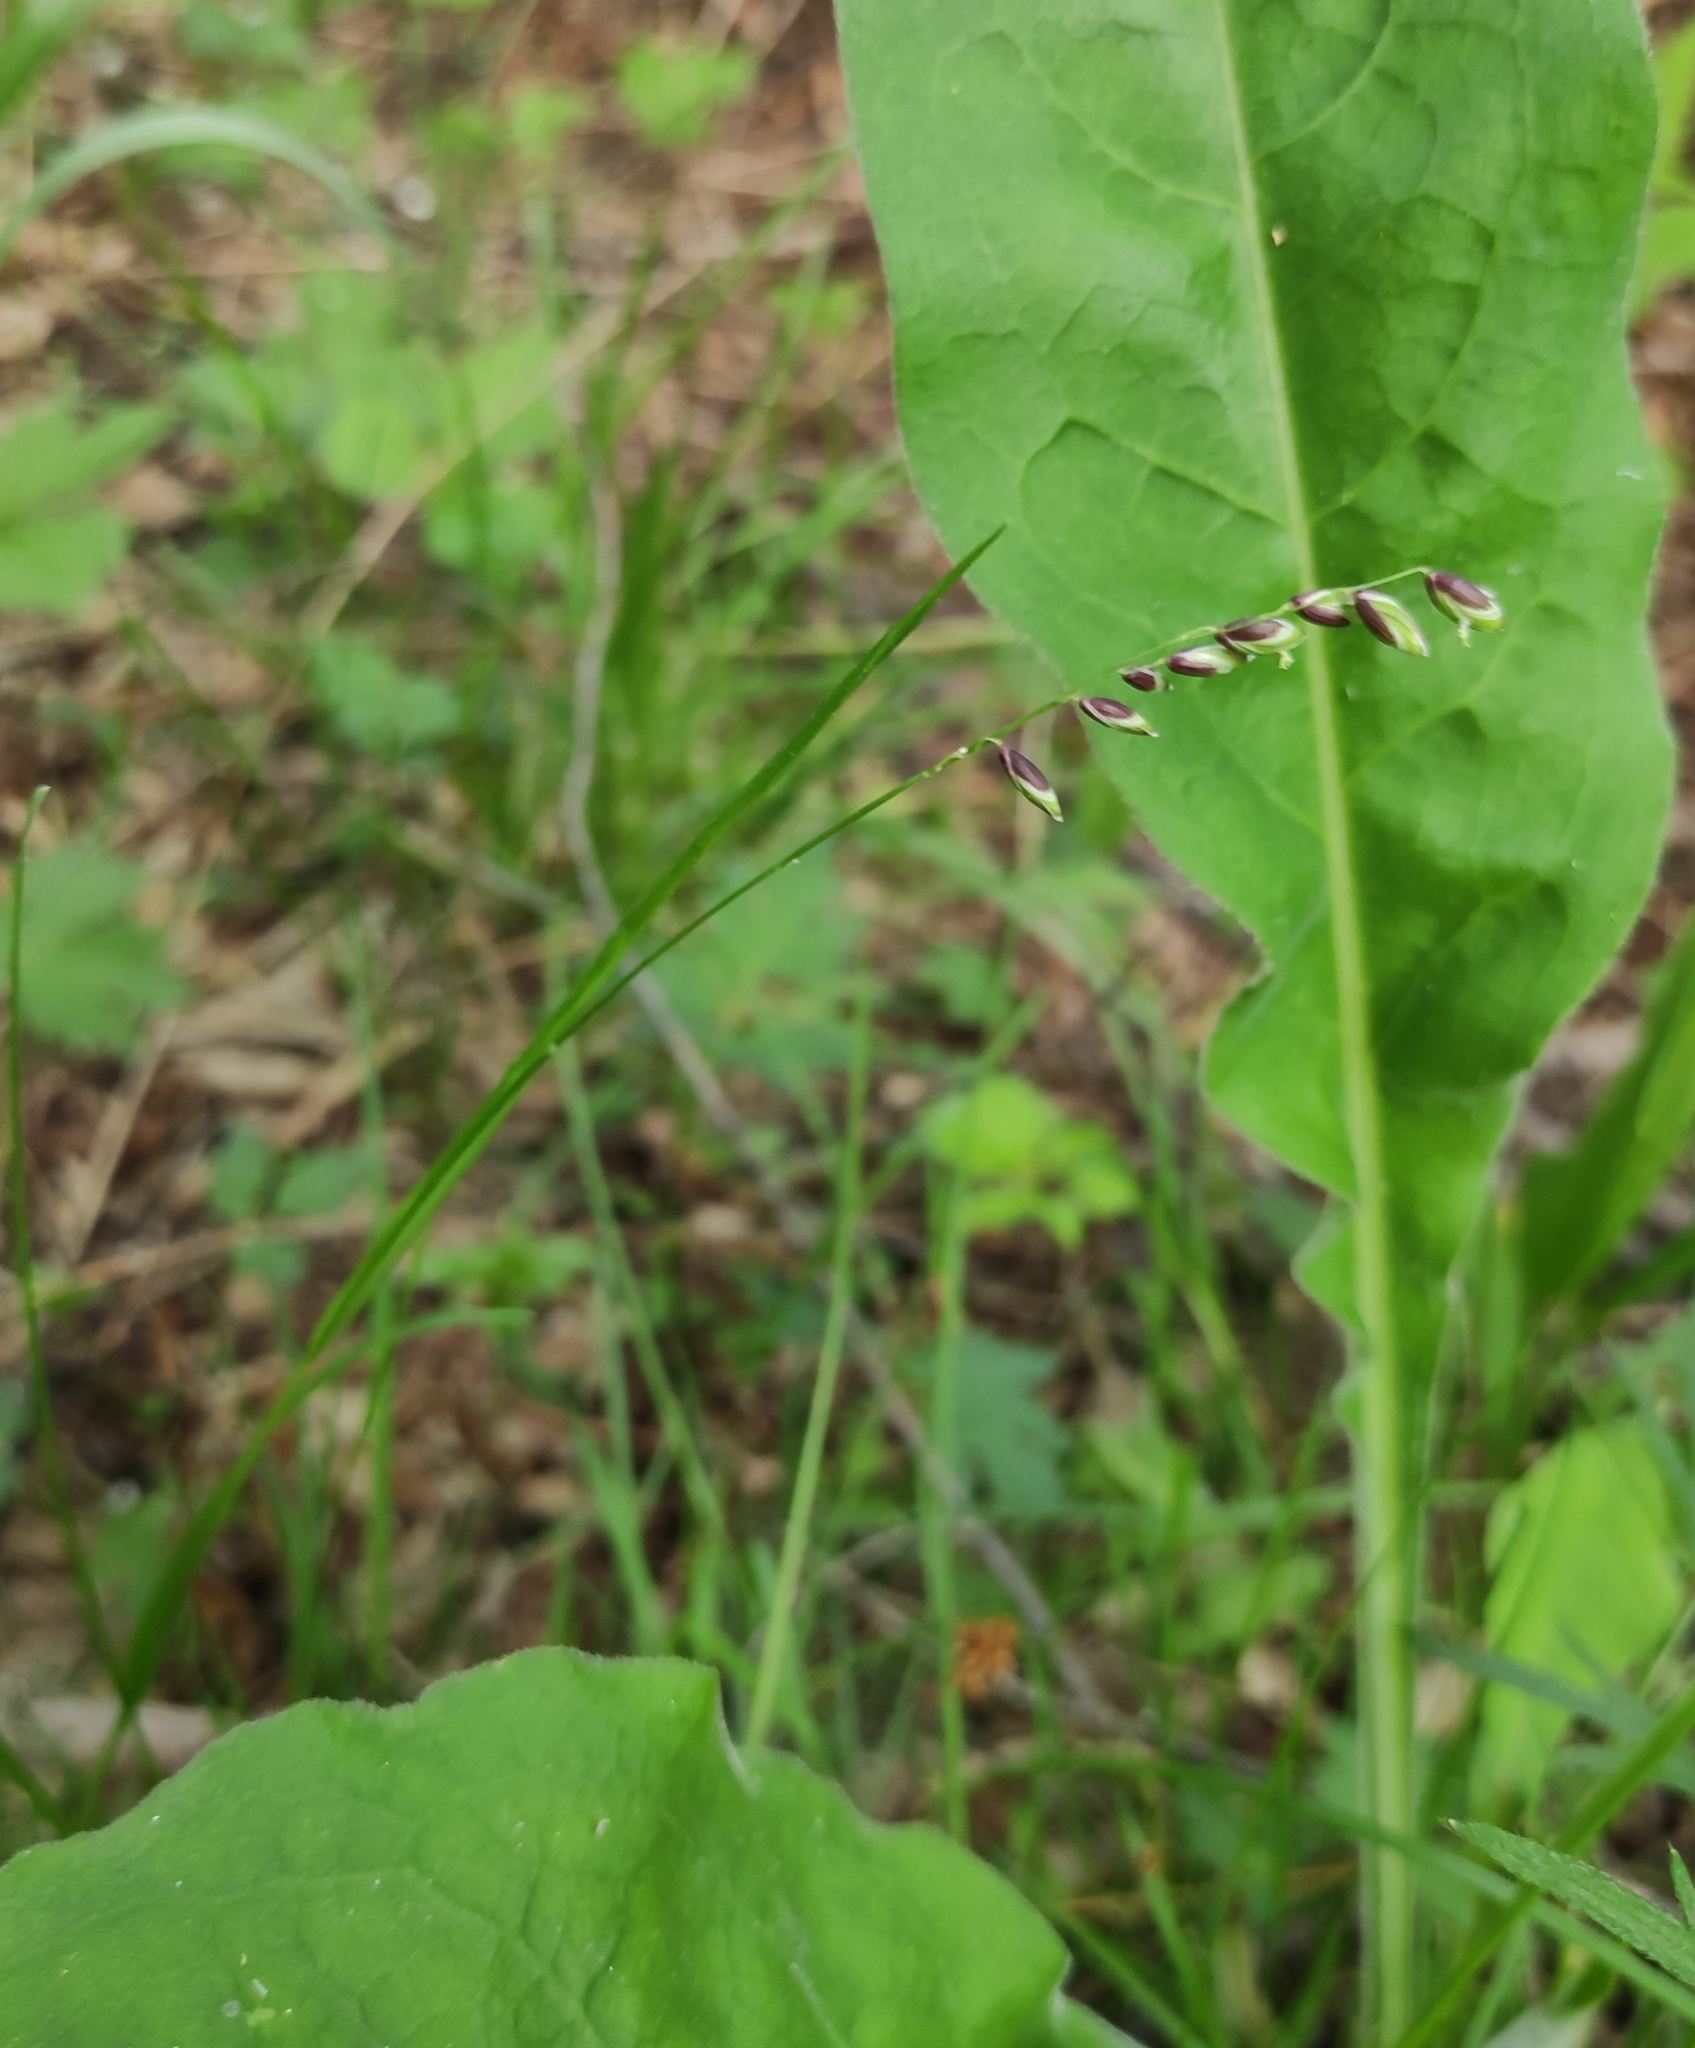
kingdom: Plantae
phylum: Tracheophyta
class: Liliopsida
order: Poales
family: Poaceae
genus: Melica
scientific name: Melica nutans
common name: Mountain melick
